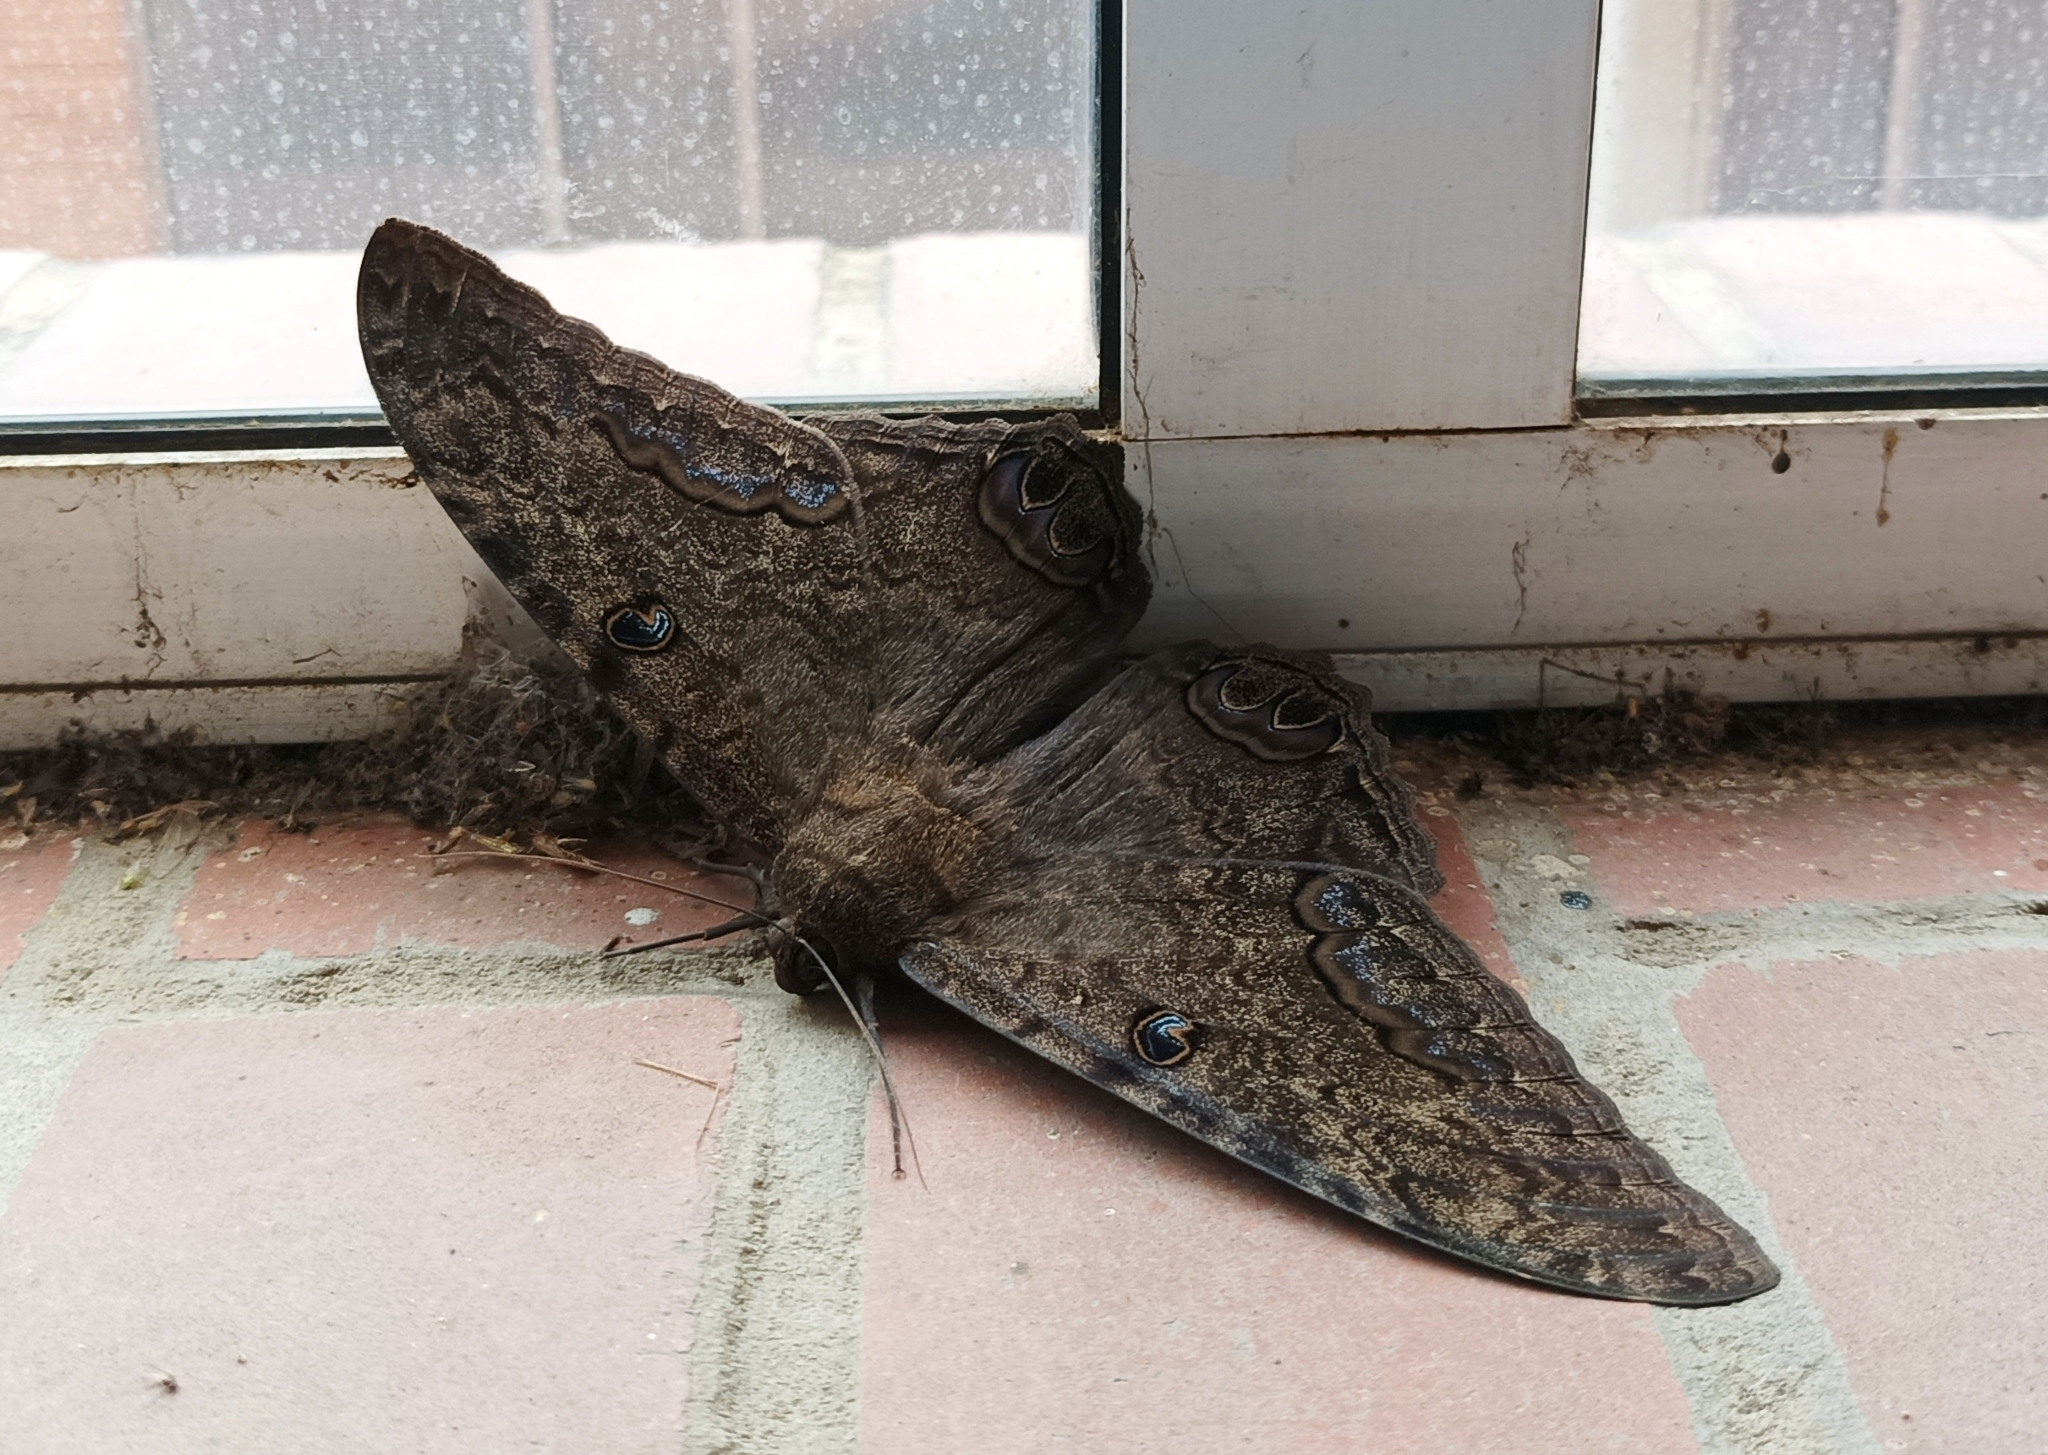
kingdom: Animalia
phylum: Arthropoda
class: Insecta
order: Lepidoptera
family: Erebidae
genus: Ascalapha
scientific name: Ascalapha odorata
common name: Black witch
